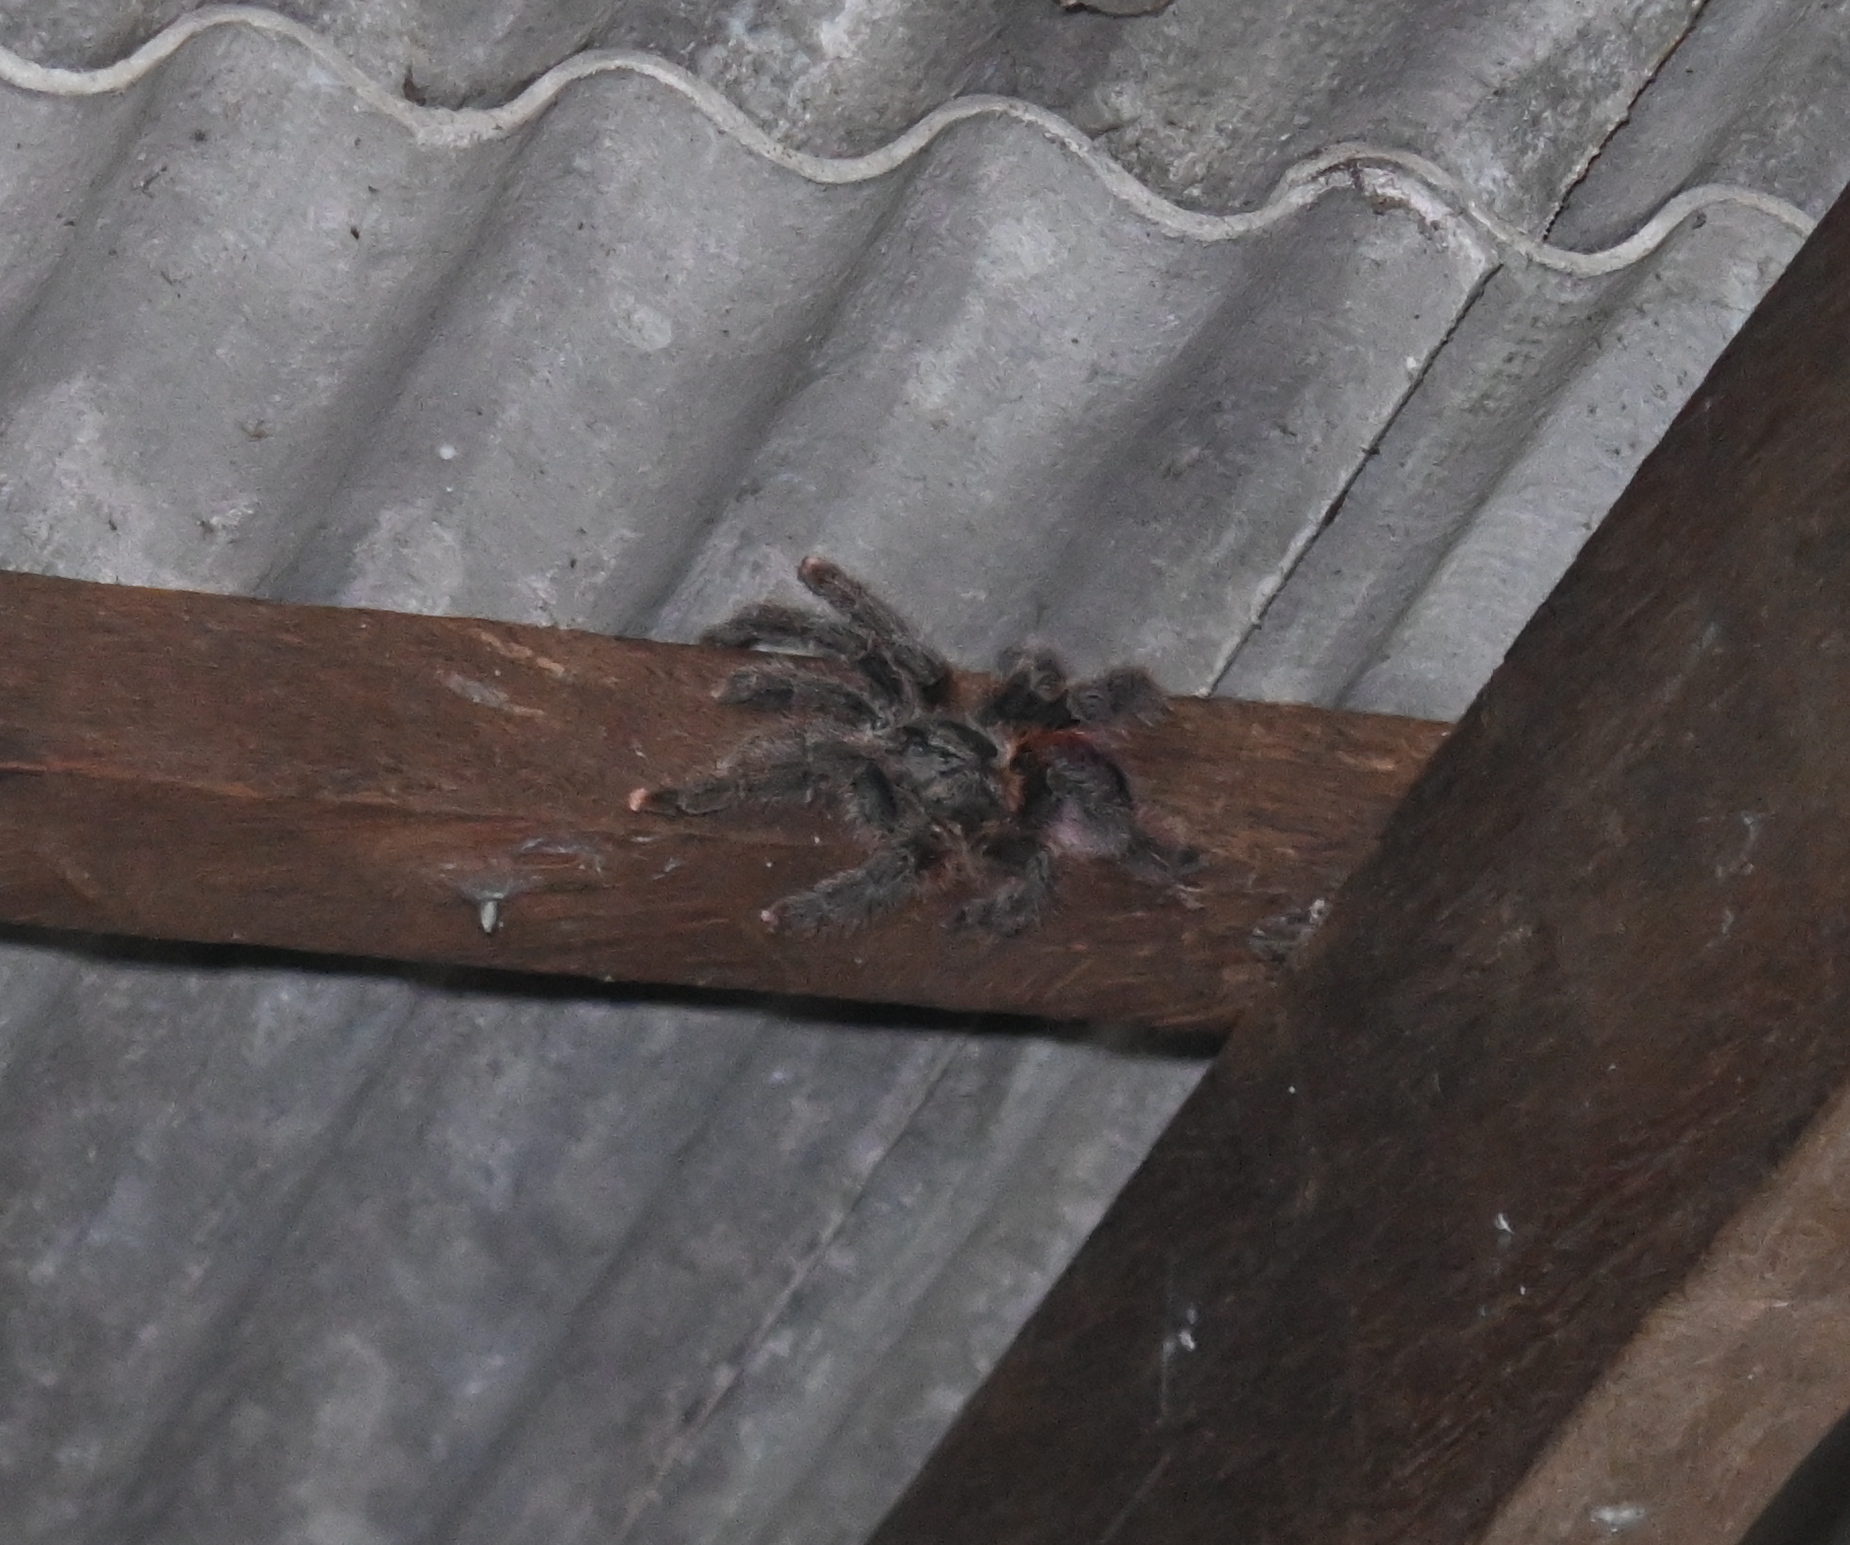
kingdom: Animalia
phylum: Arthropoda
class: Arachnida
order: Araneae
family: Theraphosidae
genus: Avicularia
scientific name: Avicularia avicularia
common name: Tarantula spiders
